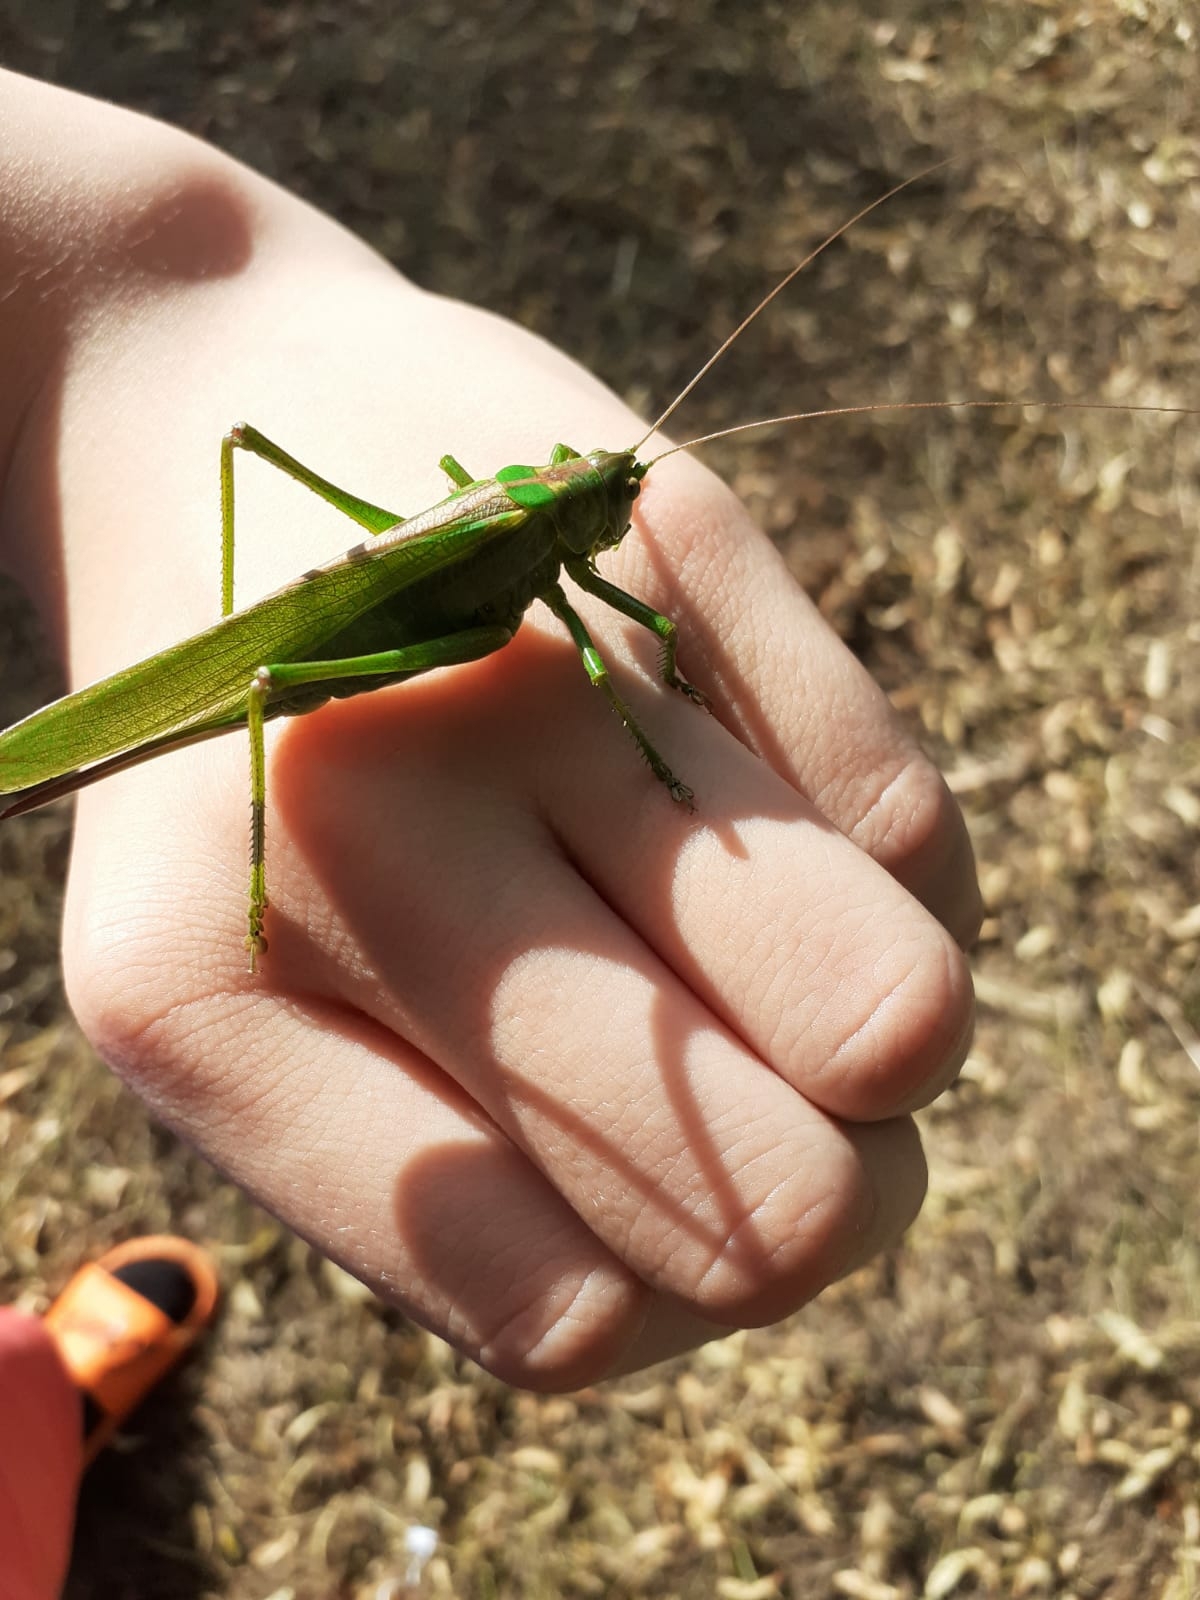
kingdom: Animalia
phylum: Arthropoda
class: Insecta
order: Orthoptera
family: Tettigoniidae
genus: Tettigonia
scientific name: Tettigonia viridissima
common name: Great green bush-cricket
